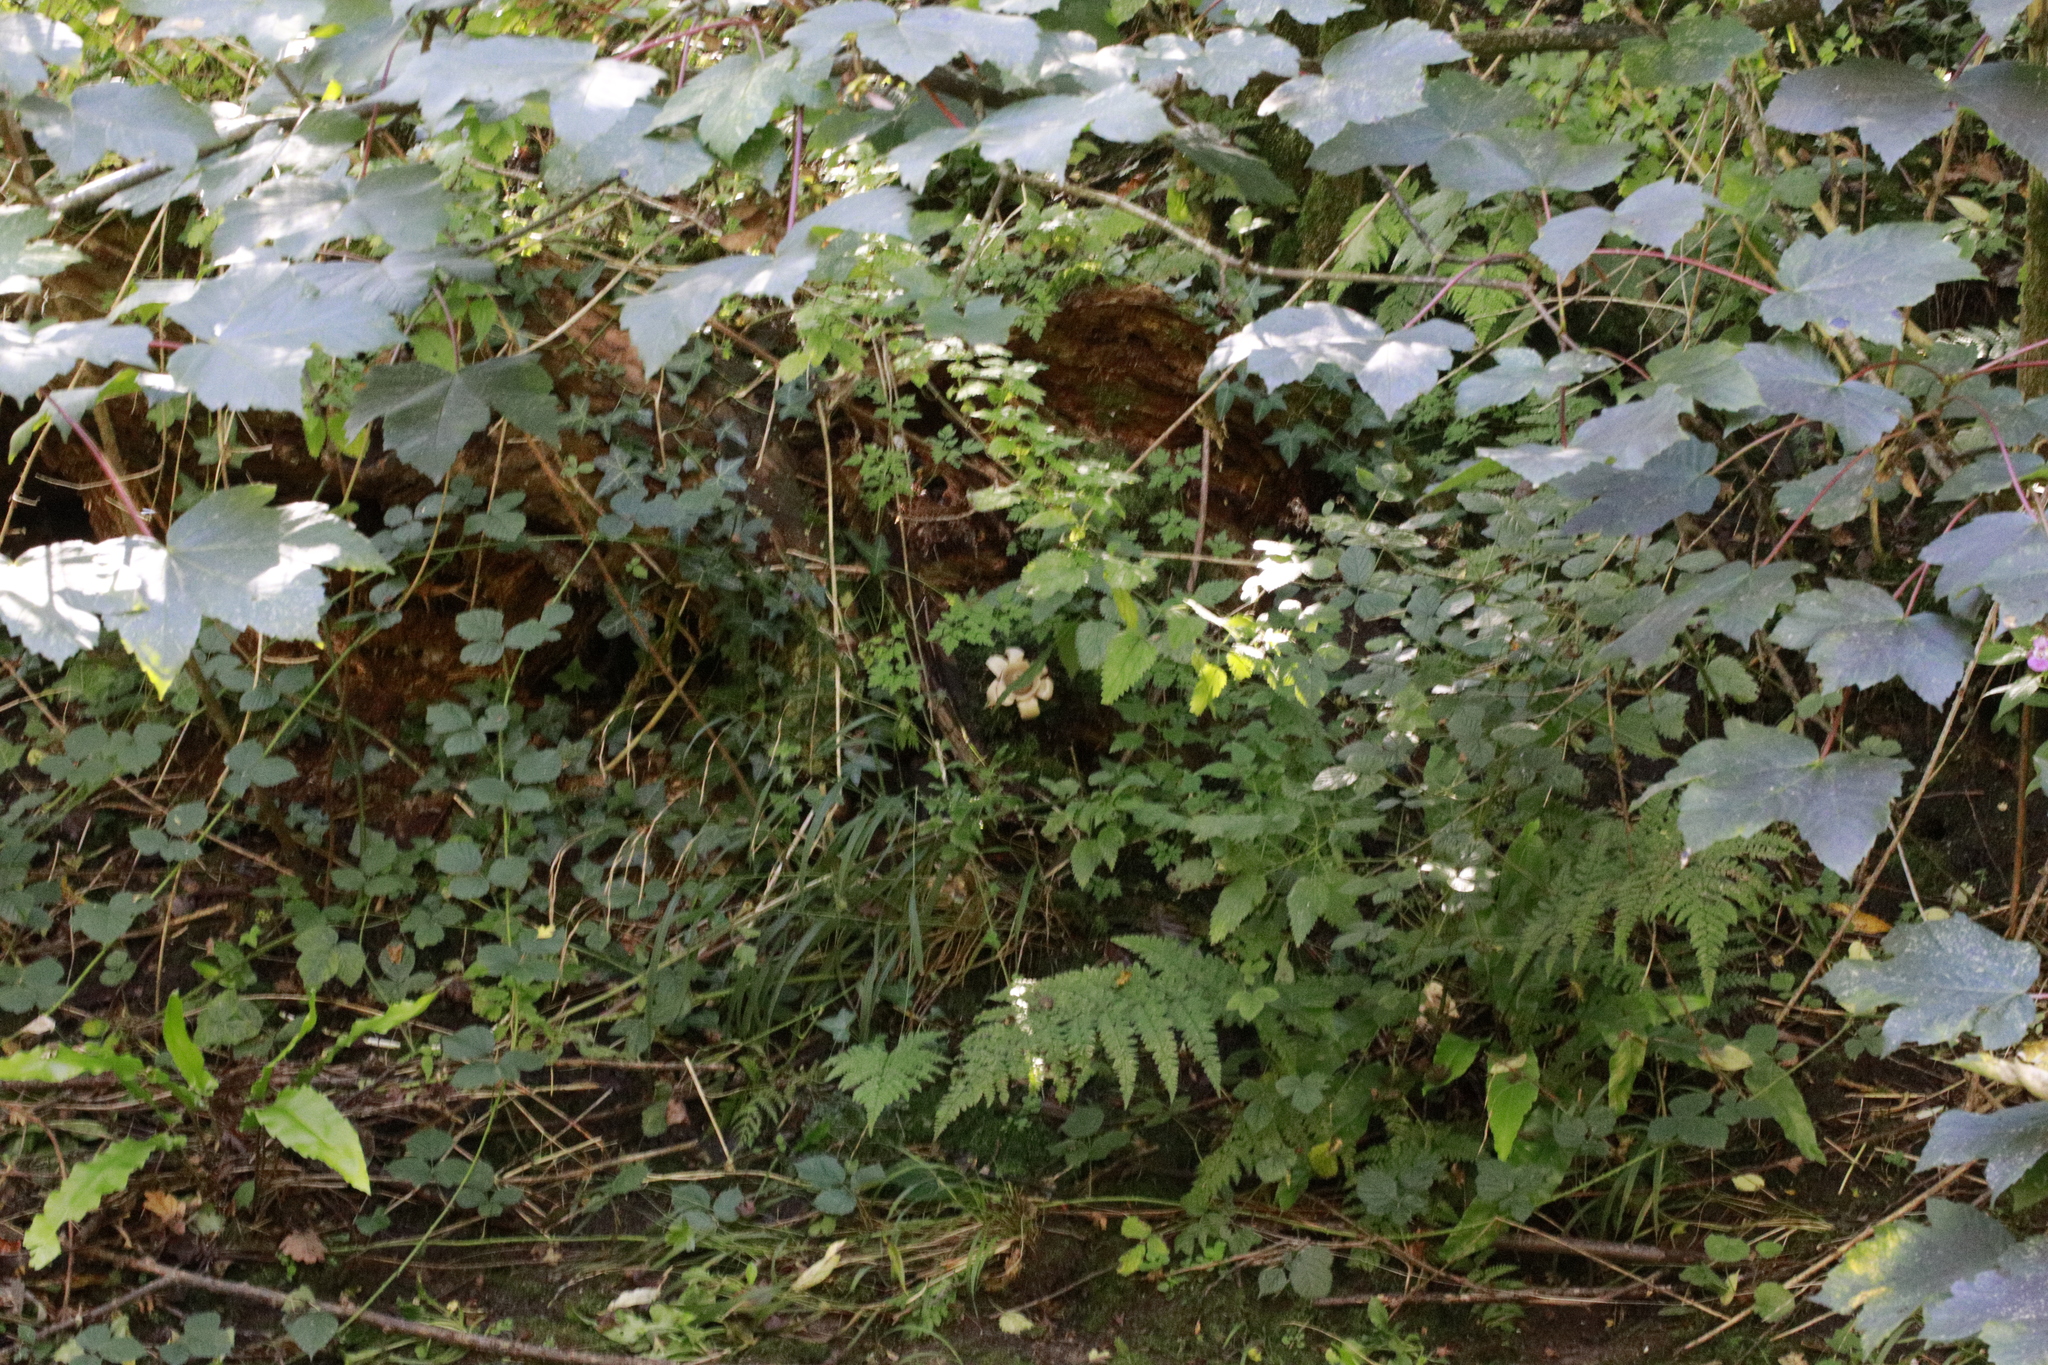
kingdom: Fungi
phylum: Basidiomycota
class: Agaricomycetes
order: Geastrales
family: Geastraceae
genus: Geastrum
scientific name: Geastrum triplex
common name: Collared earthstar
